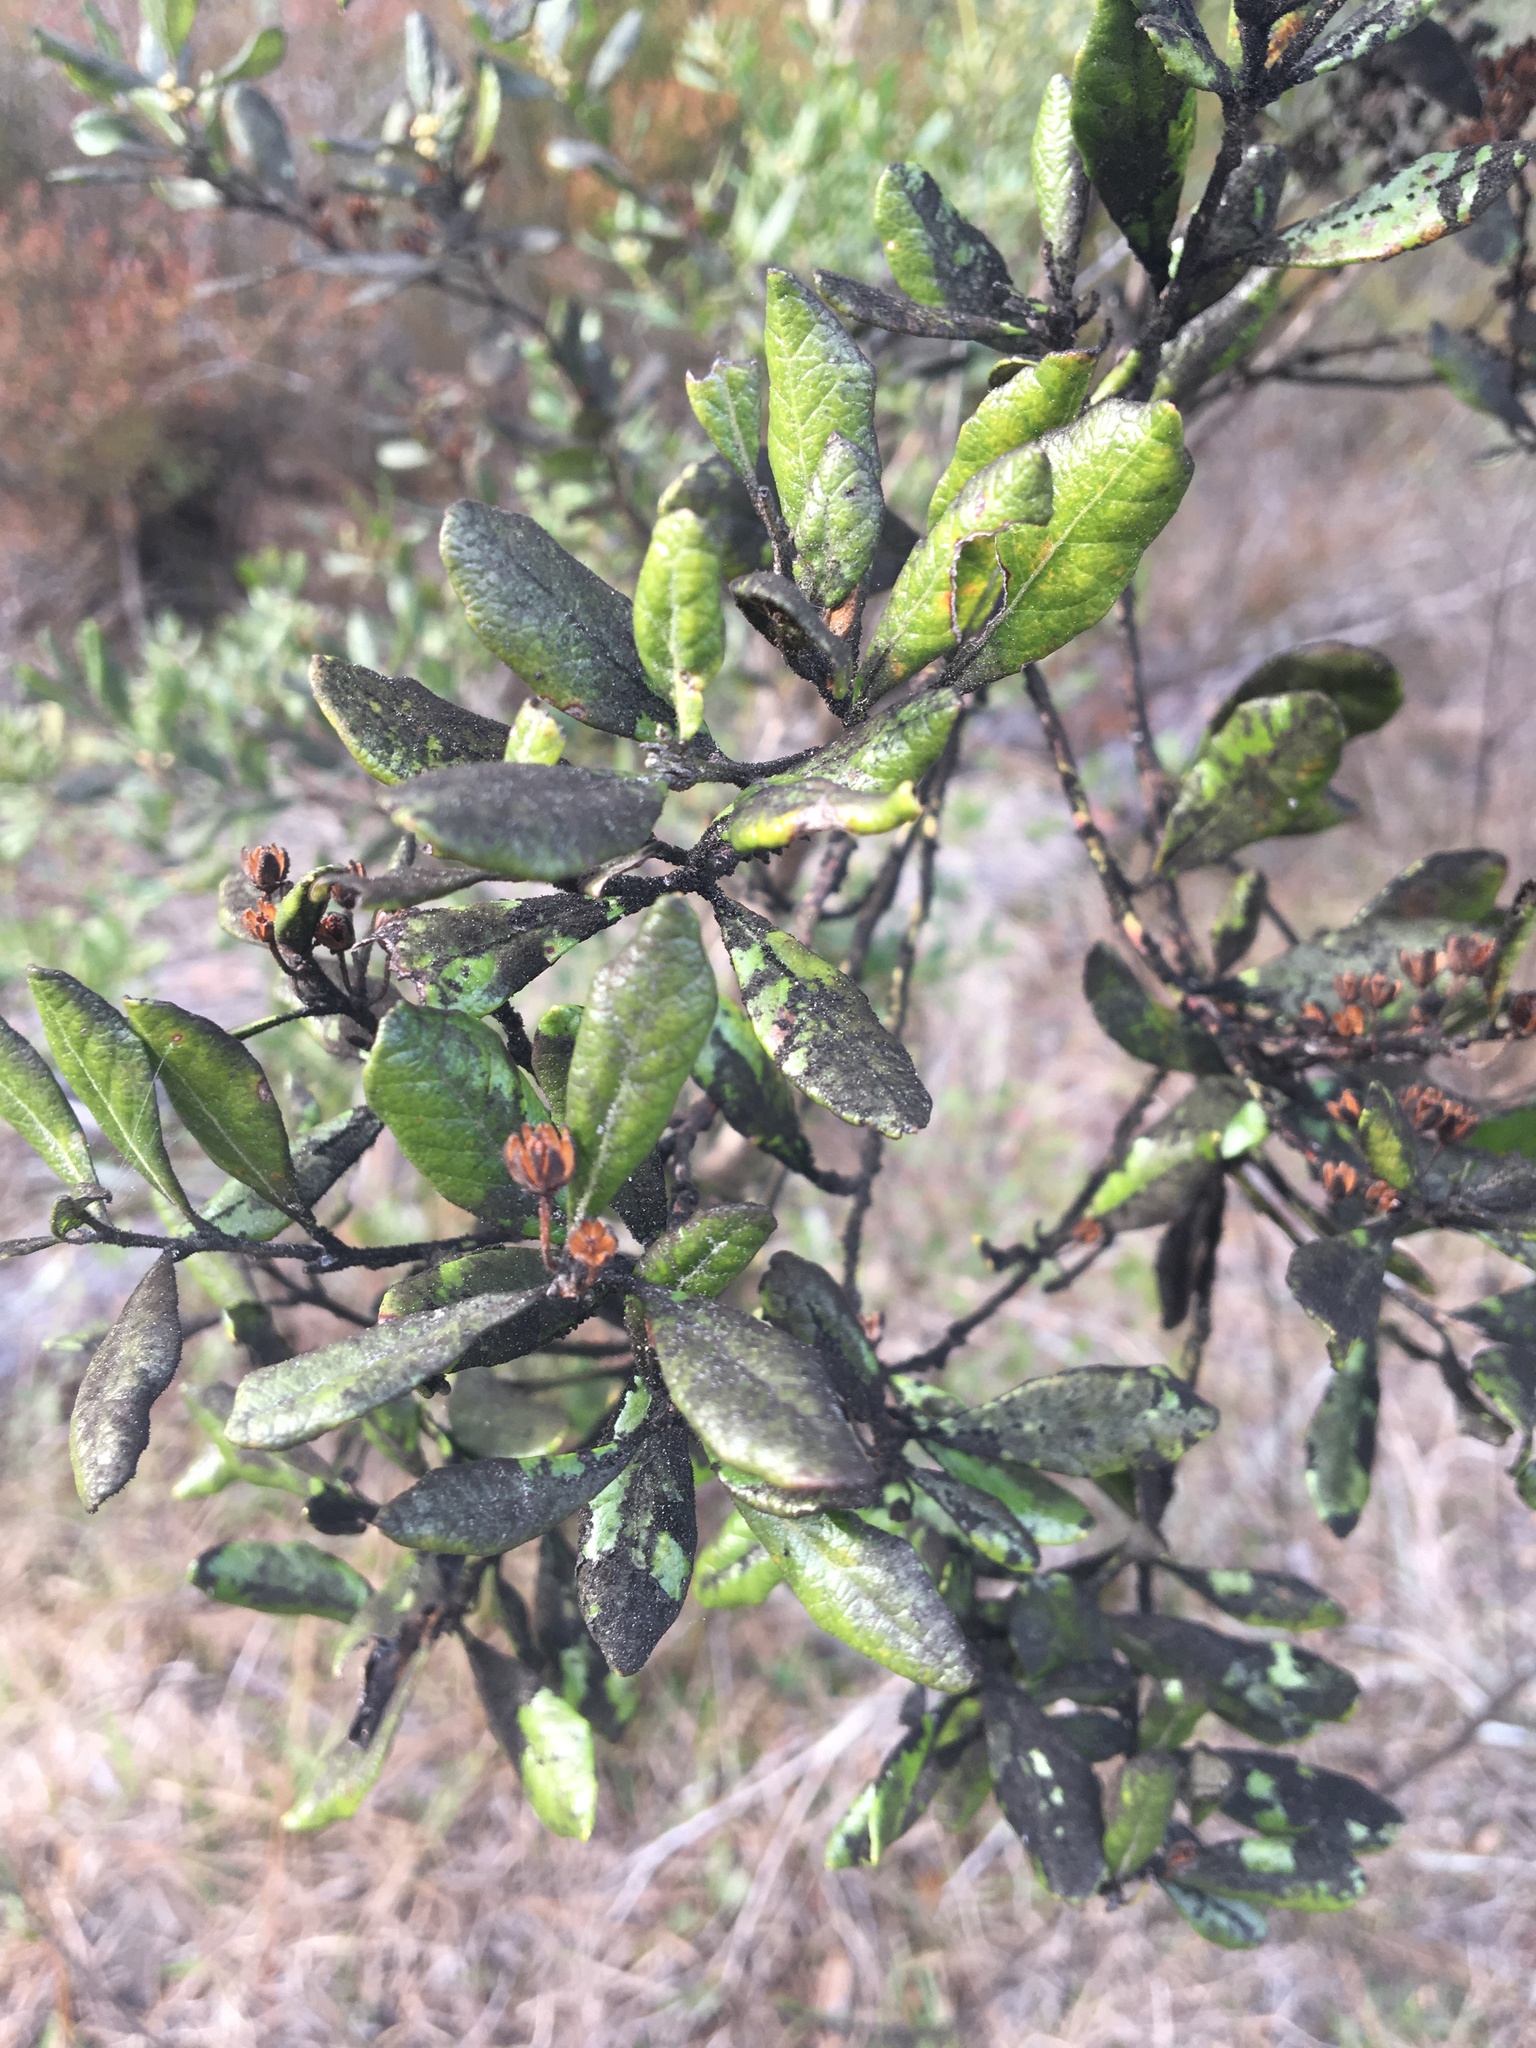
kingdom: Plantae
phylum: Tracheophyta
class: Magnoliopsida
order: Ericales
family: Ericaceae
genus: Lyonia
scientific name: Lyonia ferruginea
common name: Rusty lyonia
